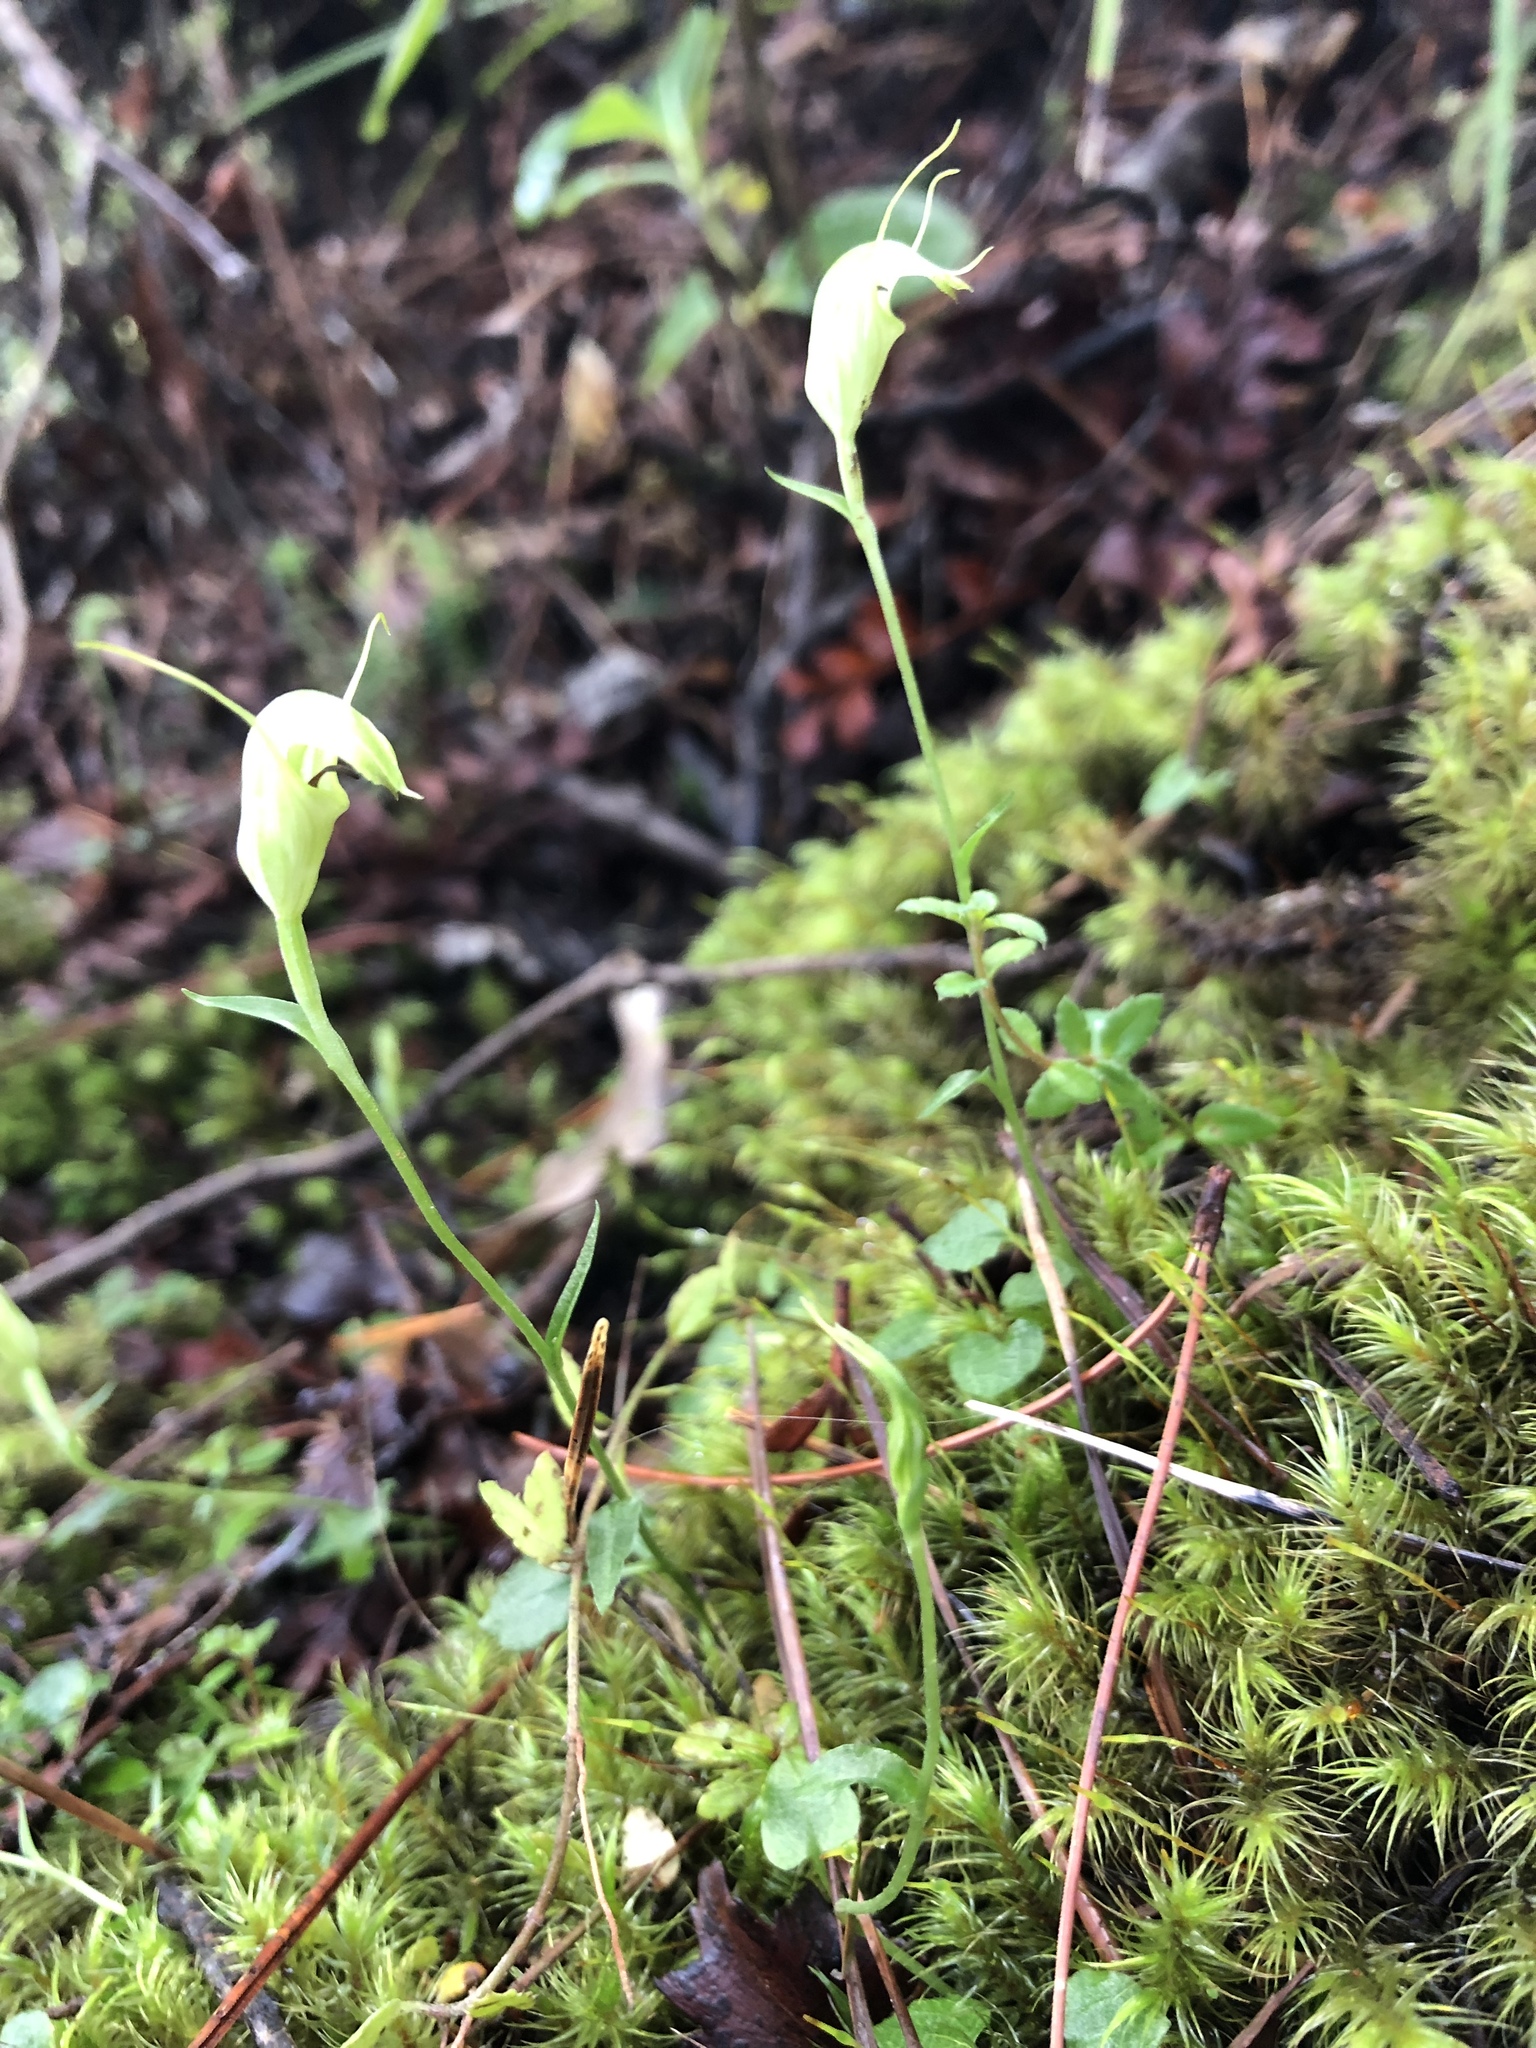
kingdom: Plantae
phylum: Tracheophyta
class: Liliopsida
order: Asparagales
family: Orchidaceae
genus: Pterostylis
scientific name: Pterostylis trullifolia
